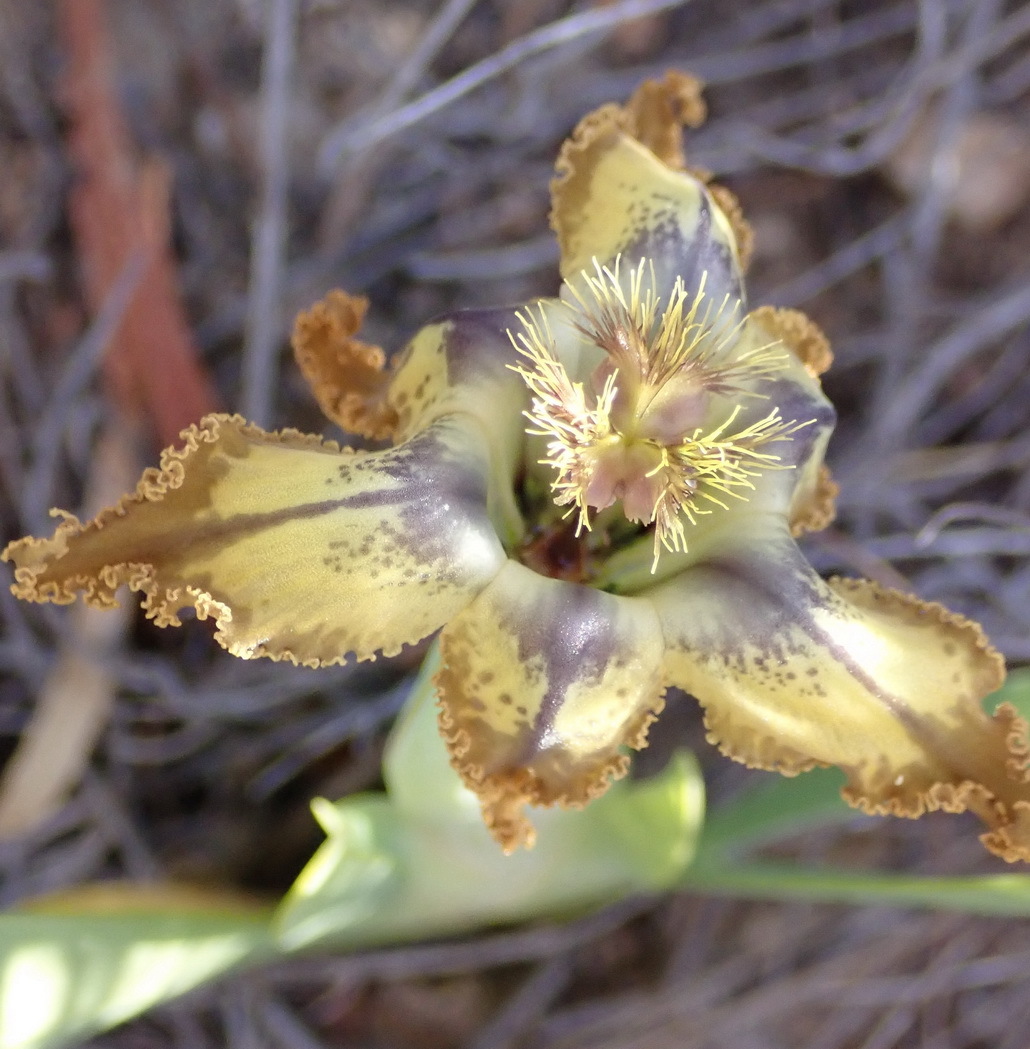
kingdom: Plantae
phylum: Tracheophyta
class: Liliopsida
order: Asparagales
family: Iridaceae
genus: Ferraria
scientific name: Ferraria variabilis
